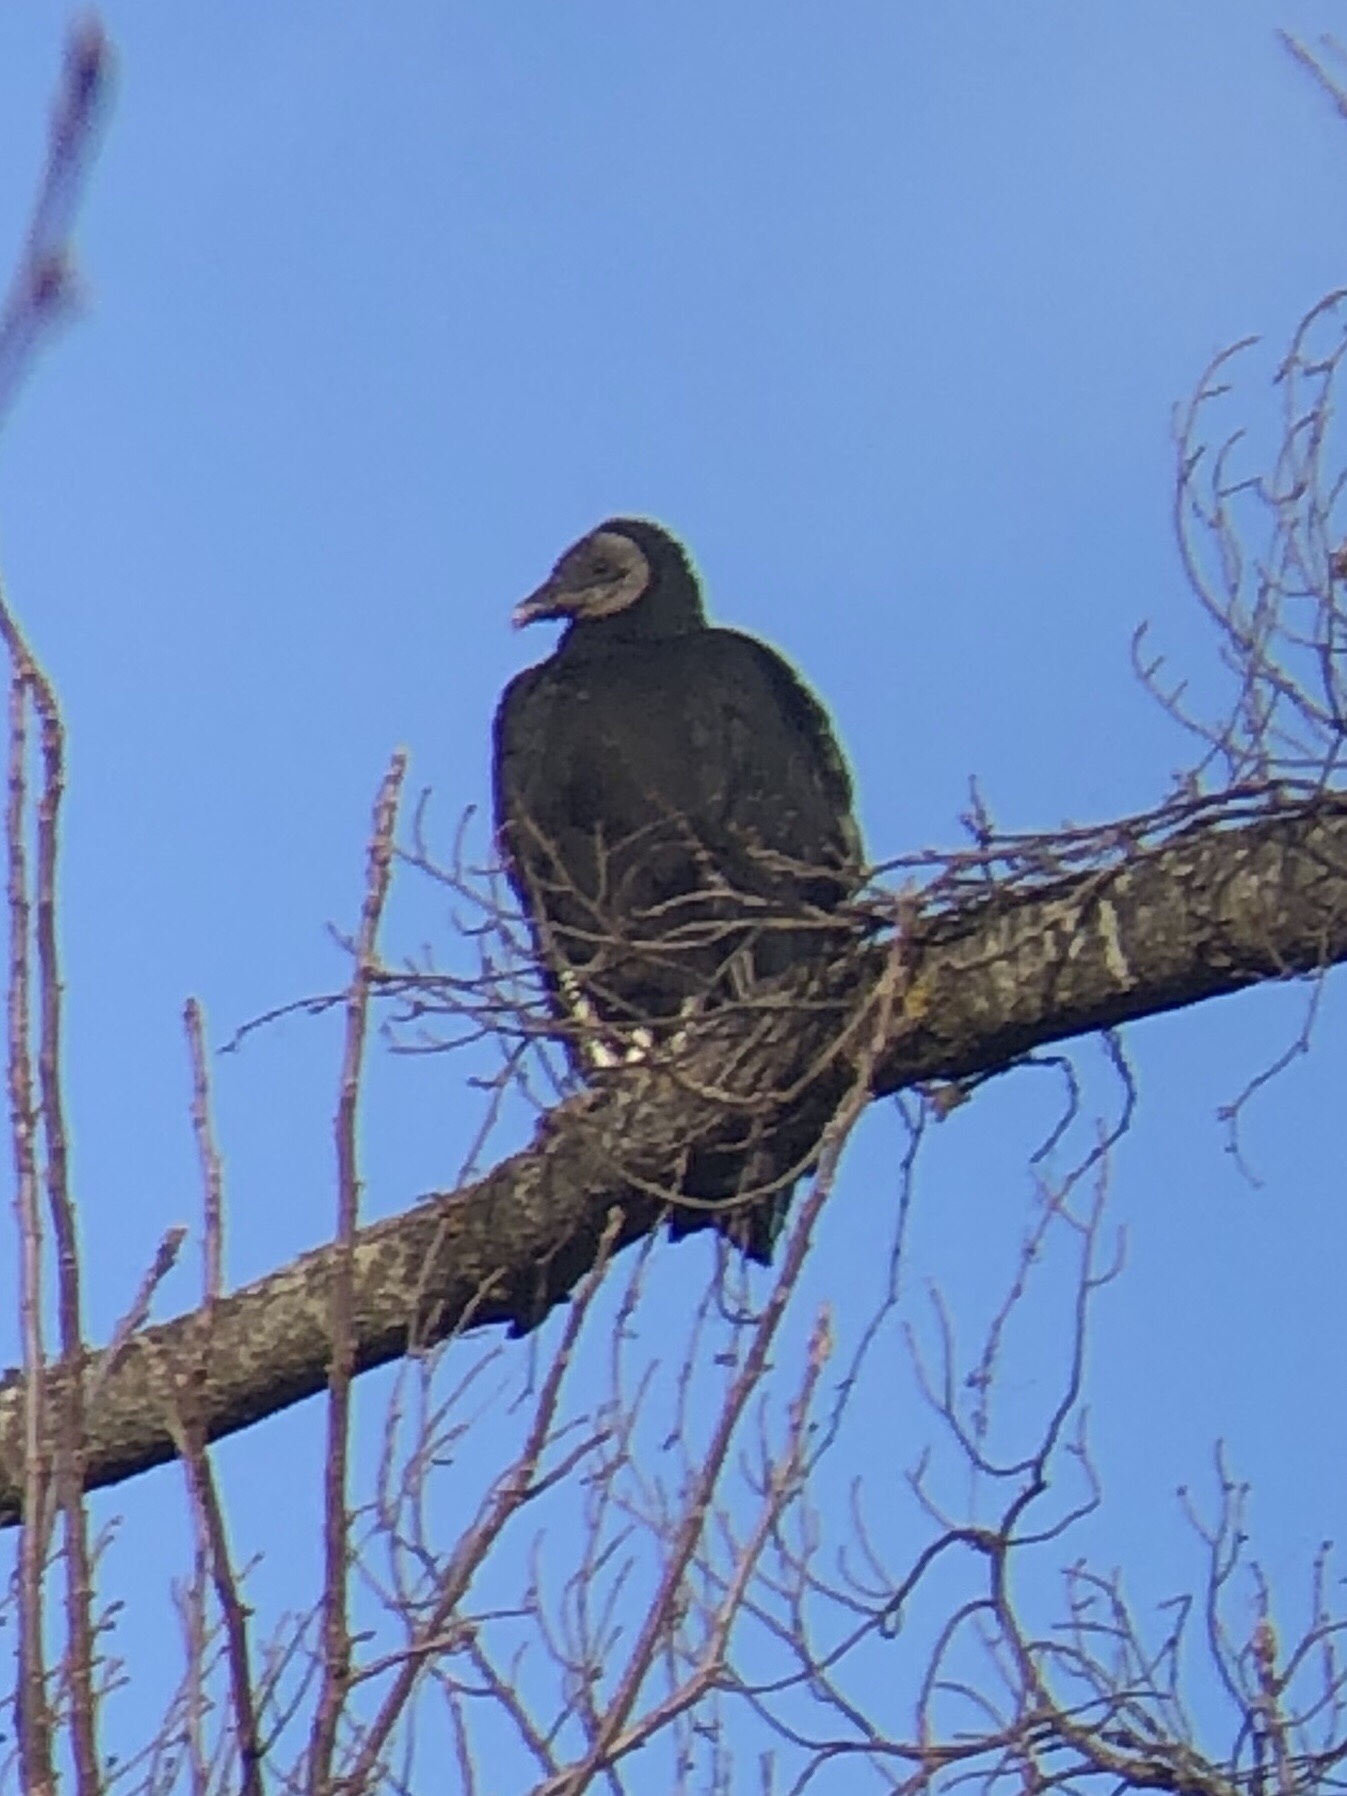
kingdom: Animalia
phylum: Chordata
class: Aves
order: Accipitriformes
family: Cathartidae
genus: Coragyps
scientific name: Coragyps atratus
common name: Black vulture
